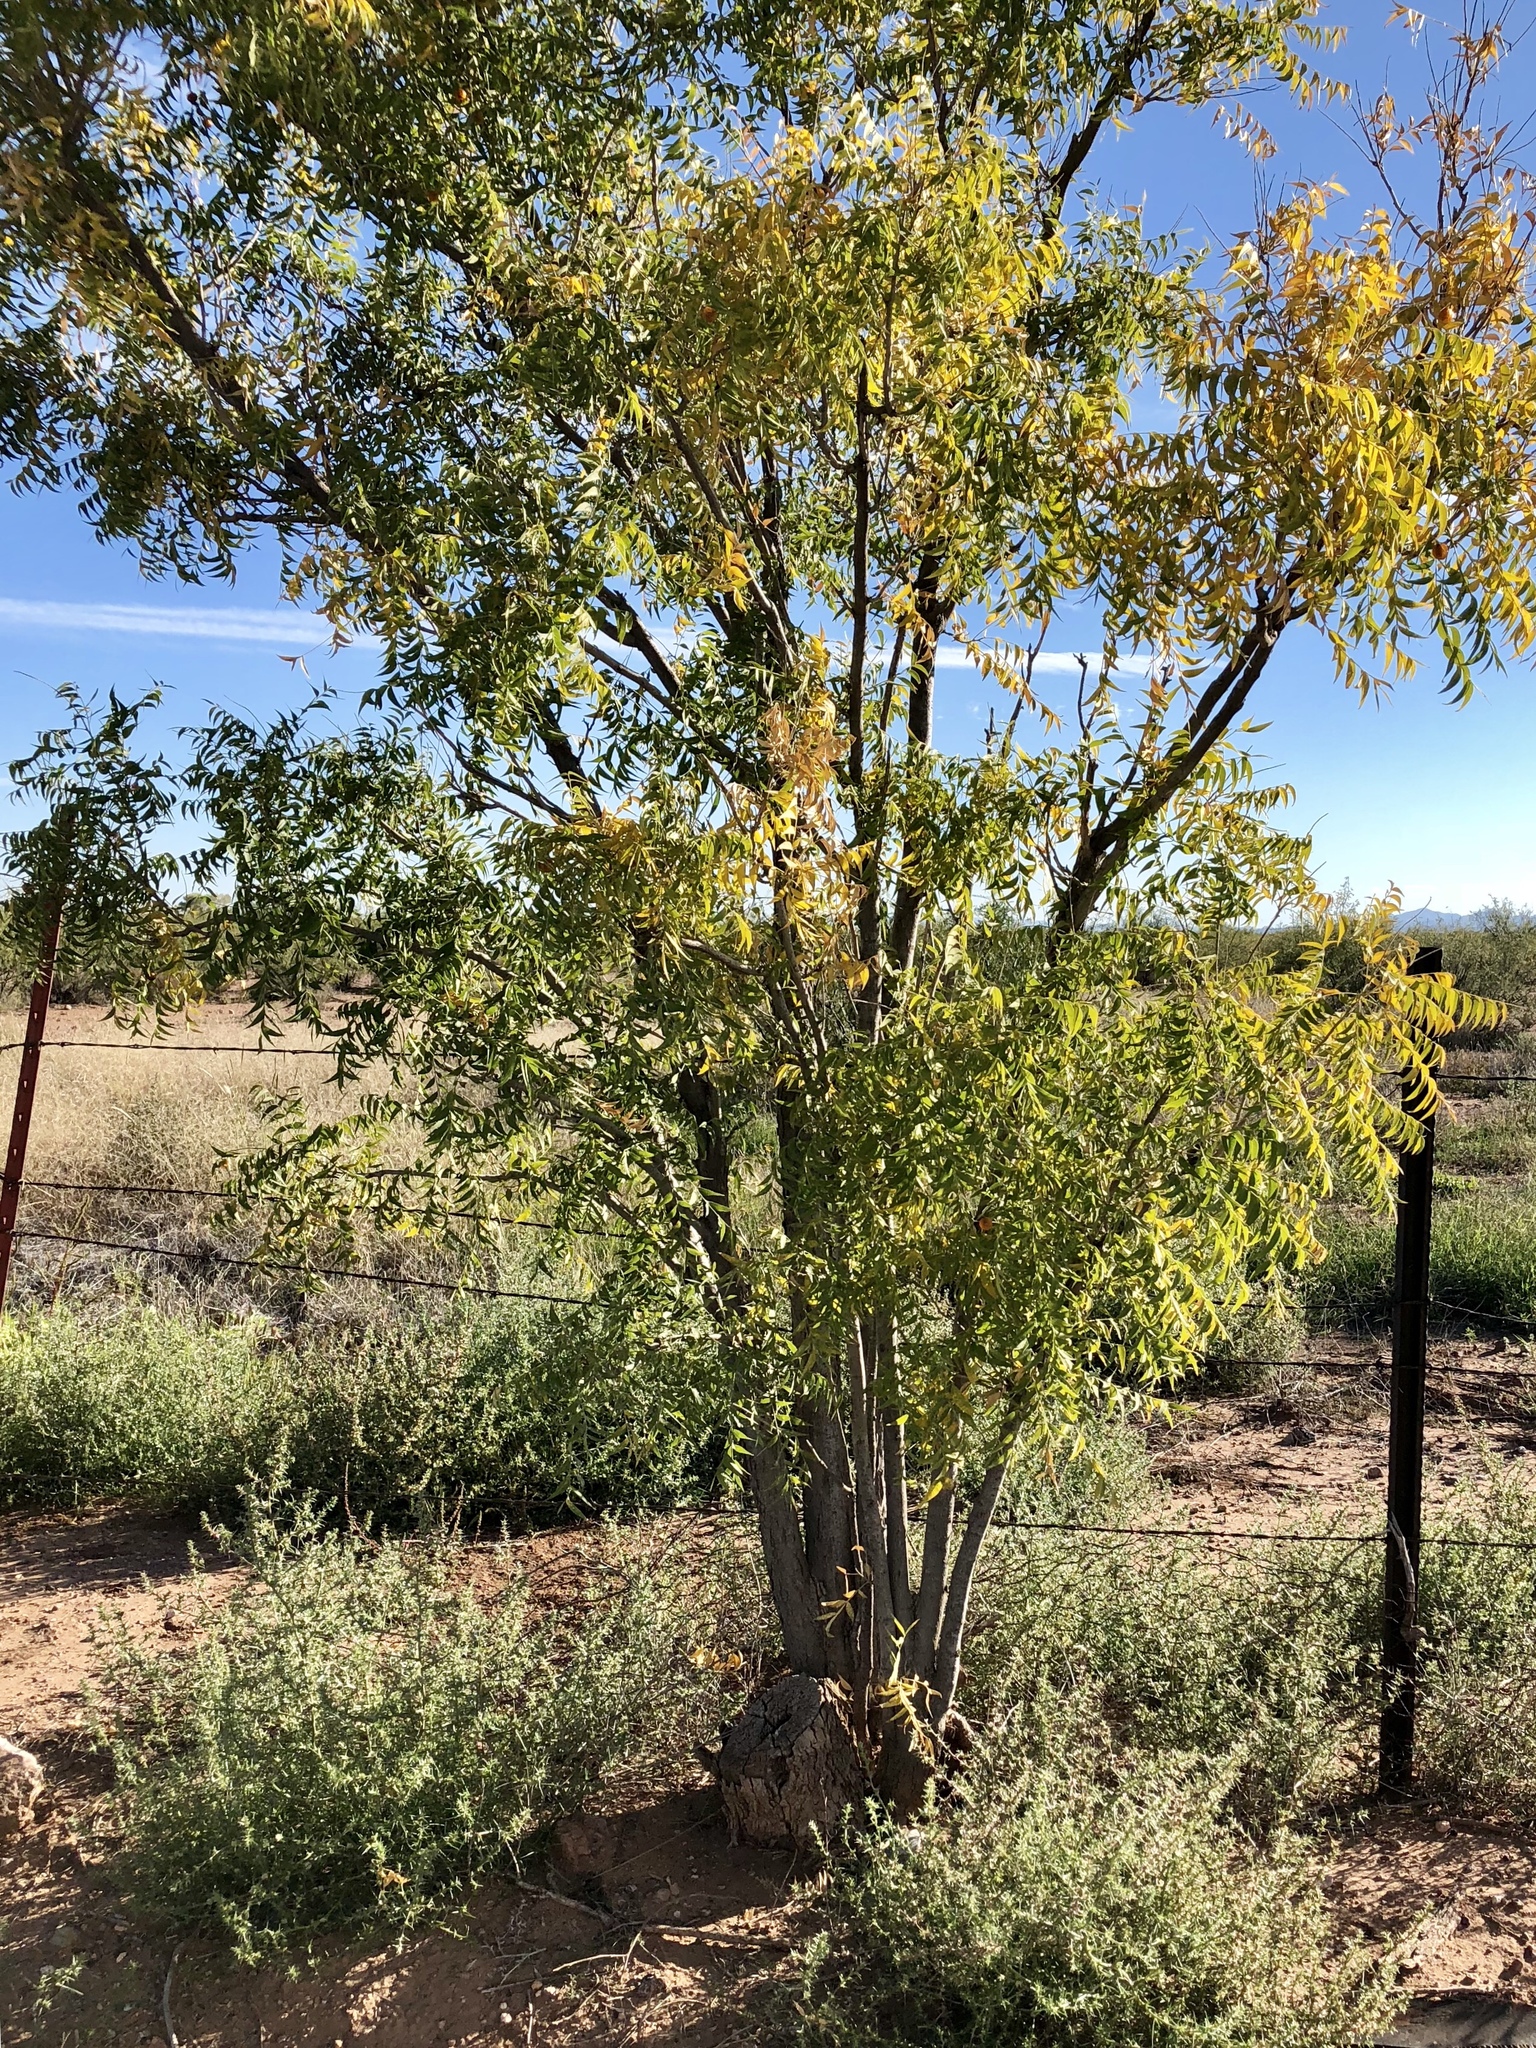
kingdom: Plantae
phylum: Tracheophyta
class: Magnoliopsida
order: Fagales
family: Juglandaceae
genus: Juglans
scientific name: Juglans major
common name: Arizona walnut
